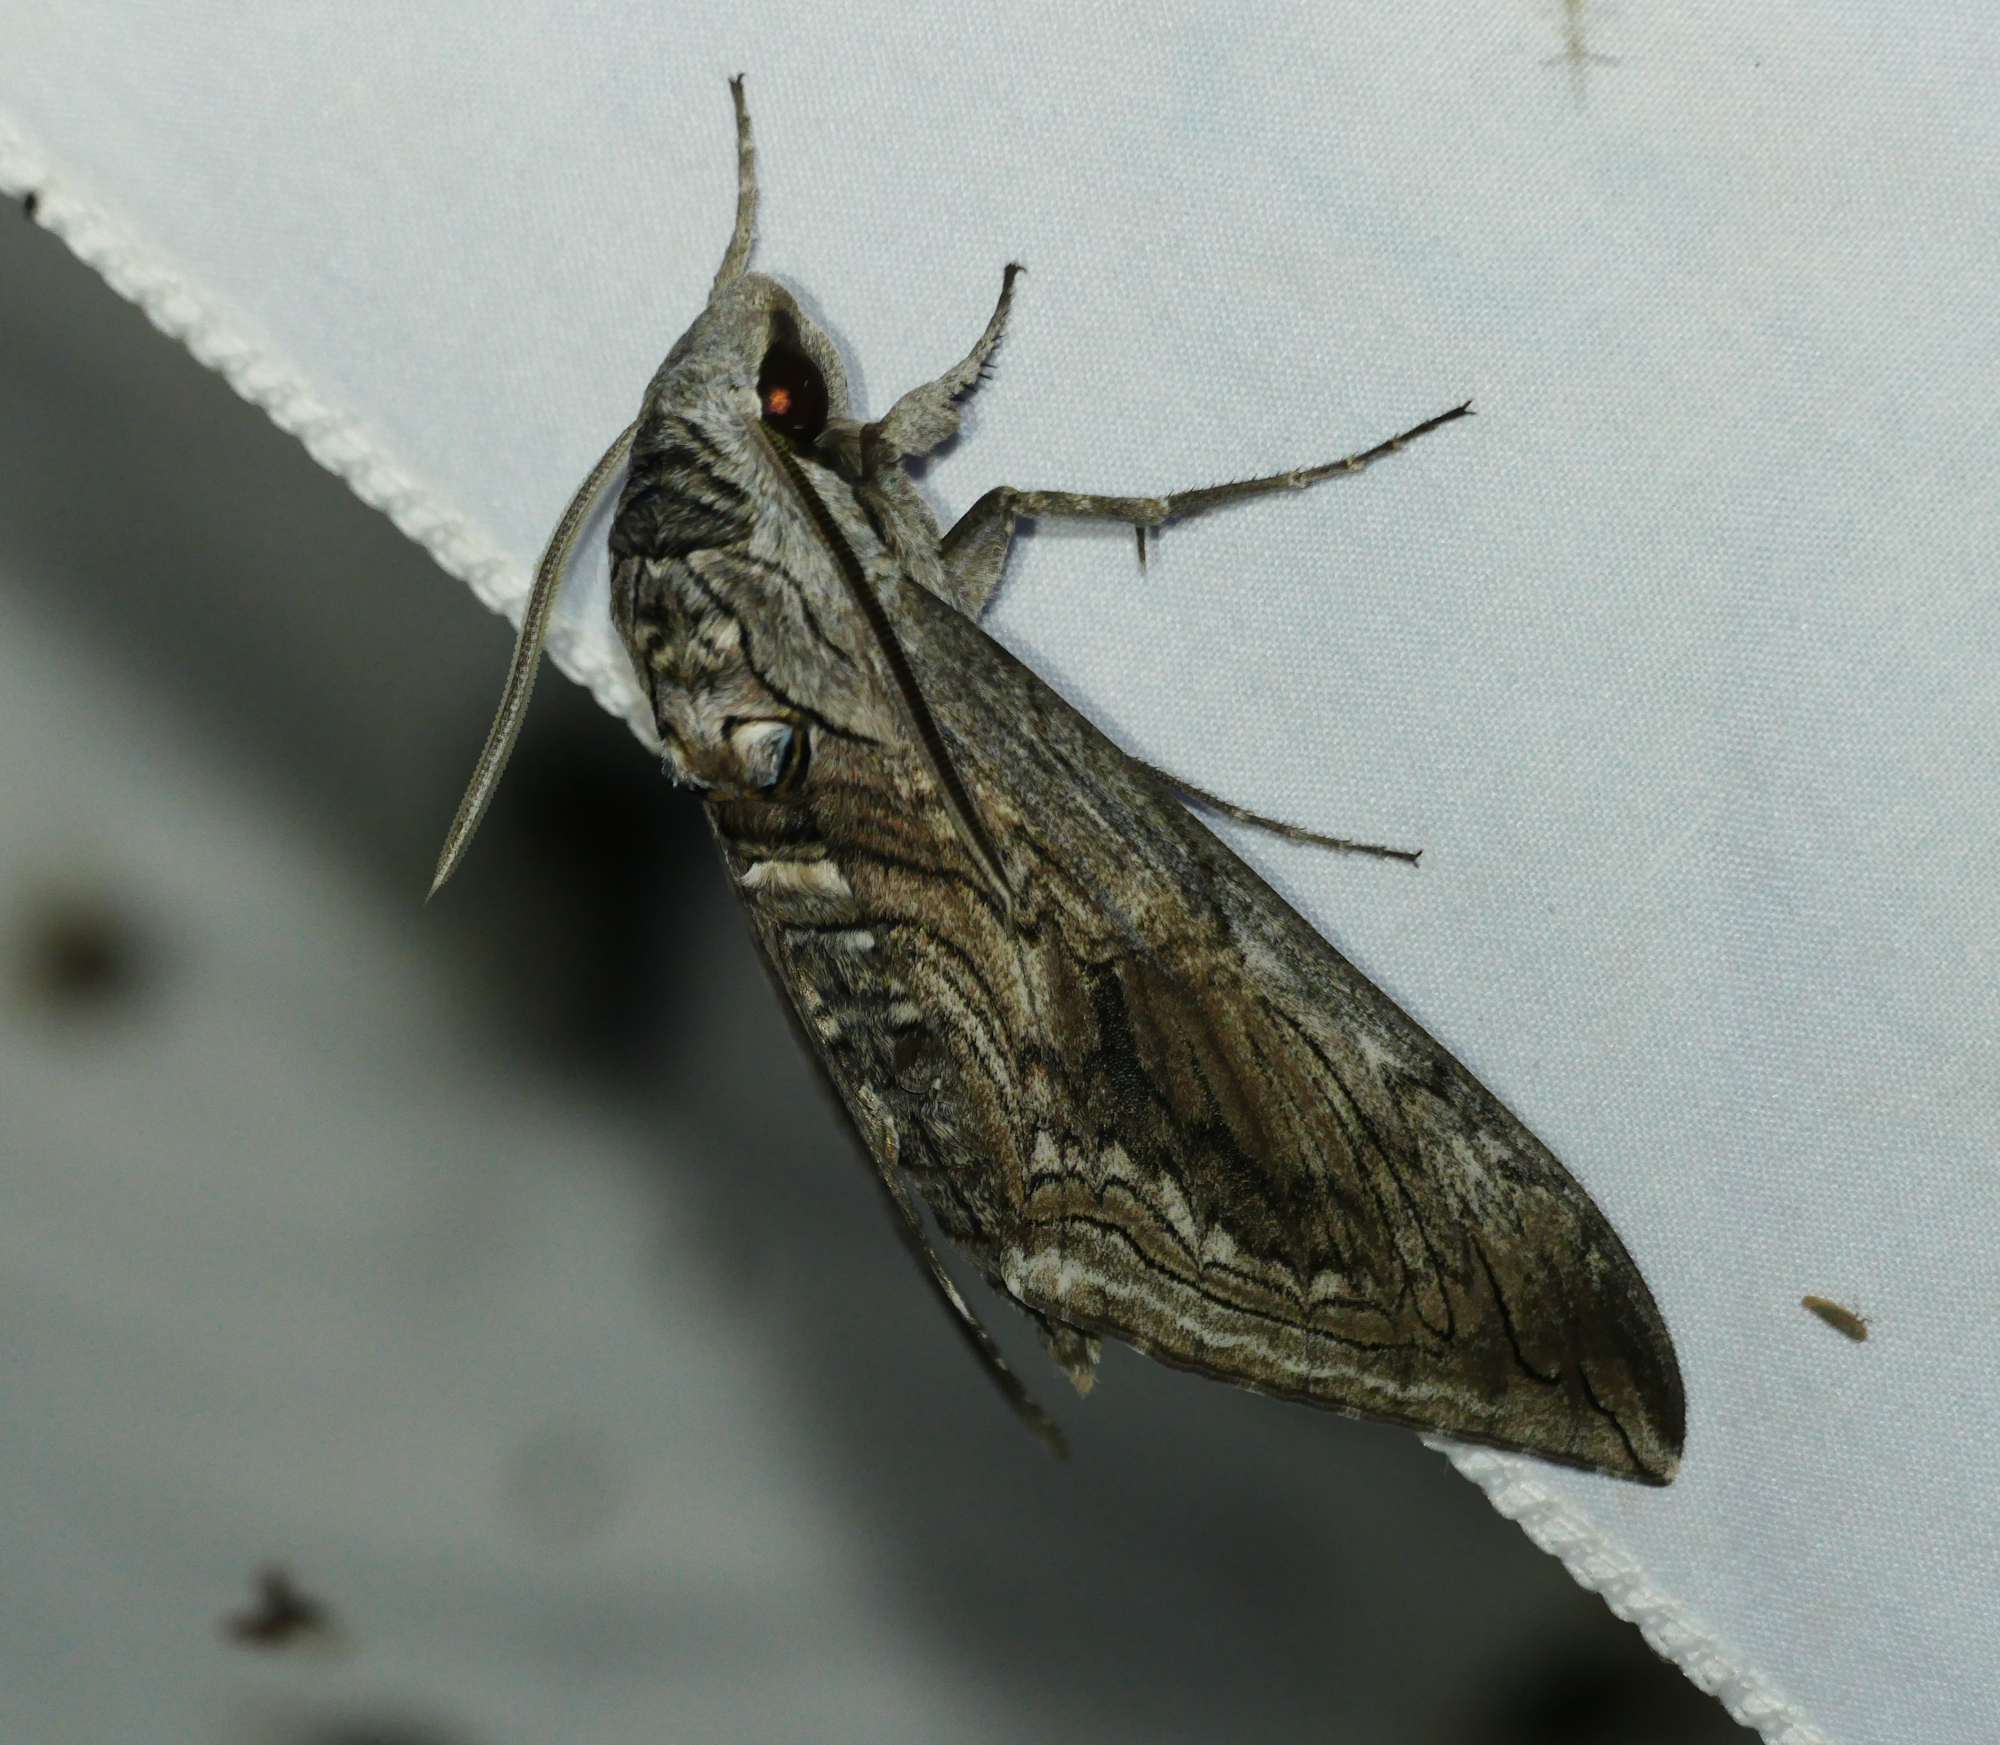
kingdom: Animalia
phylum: Arthropoda
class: Insecta
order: Lepidoptera
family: Sphingidae
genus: Manduca
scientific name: Manduca quinquemaculatus
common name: Five-spotted hawk-moth
